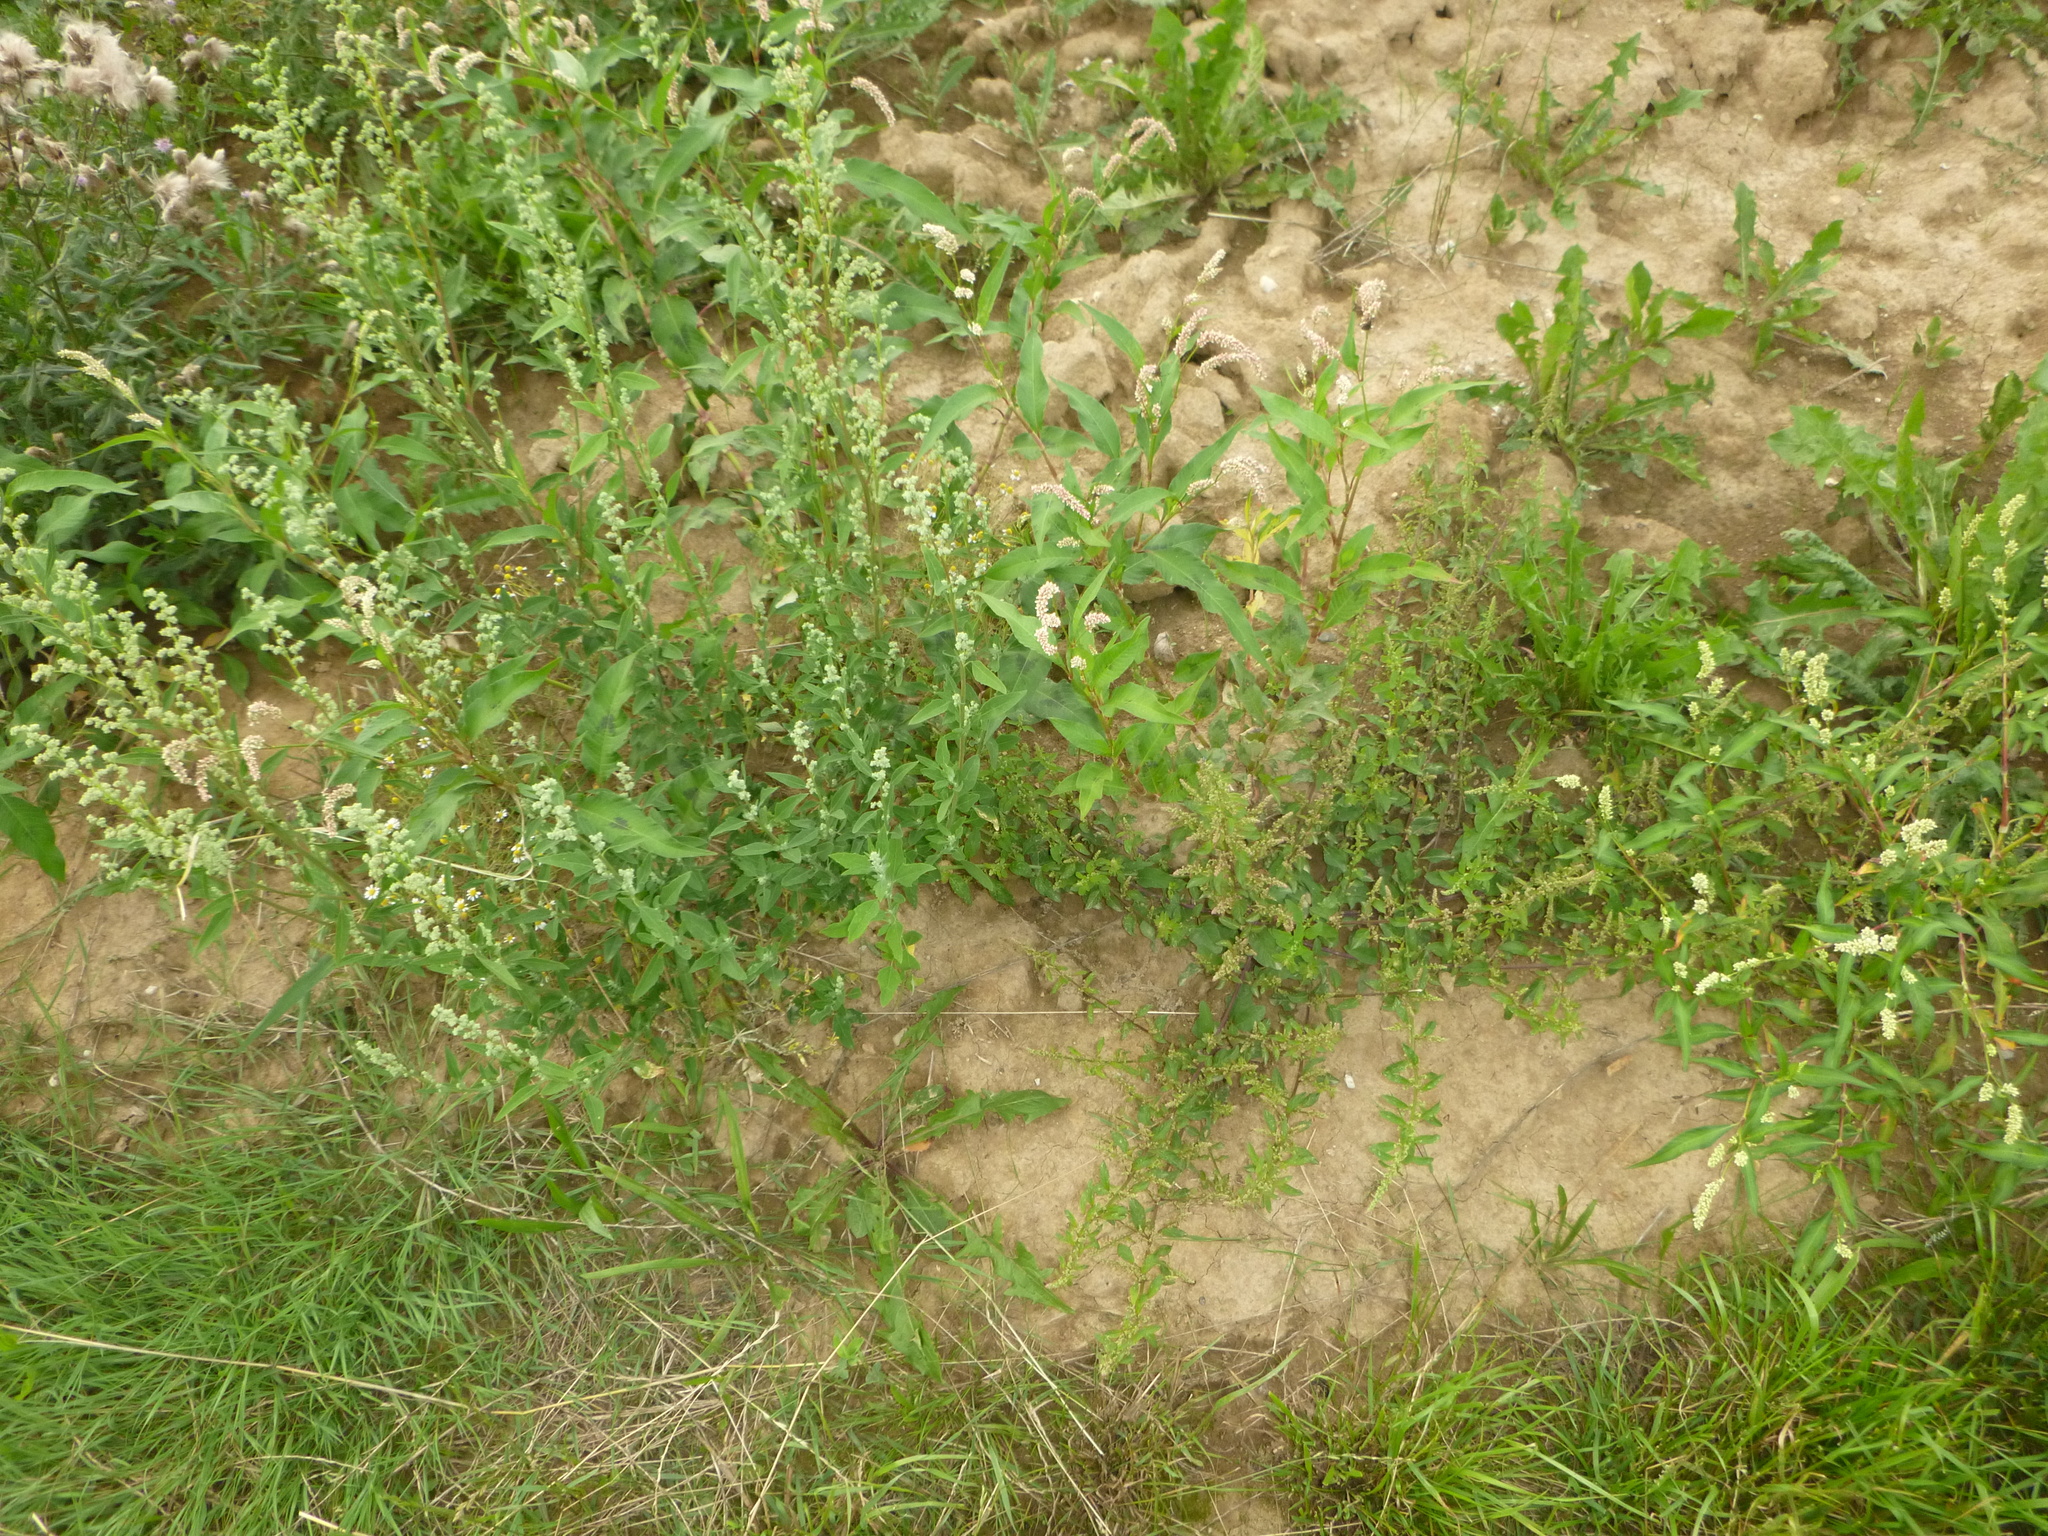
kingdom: Plantae
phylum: Tracheophyta
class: Magnoliopsida
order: Caryophyllales
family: Amaranthaceae
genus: Lipandra
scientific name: Lipandra polysperma
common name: Many-seed goosefoot
